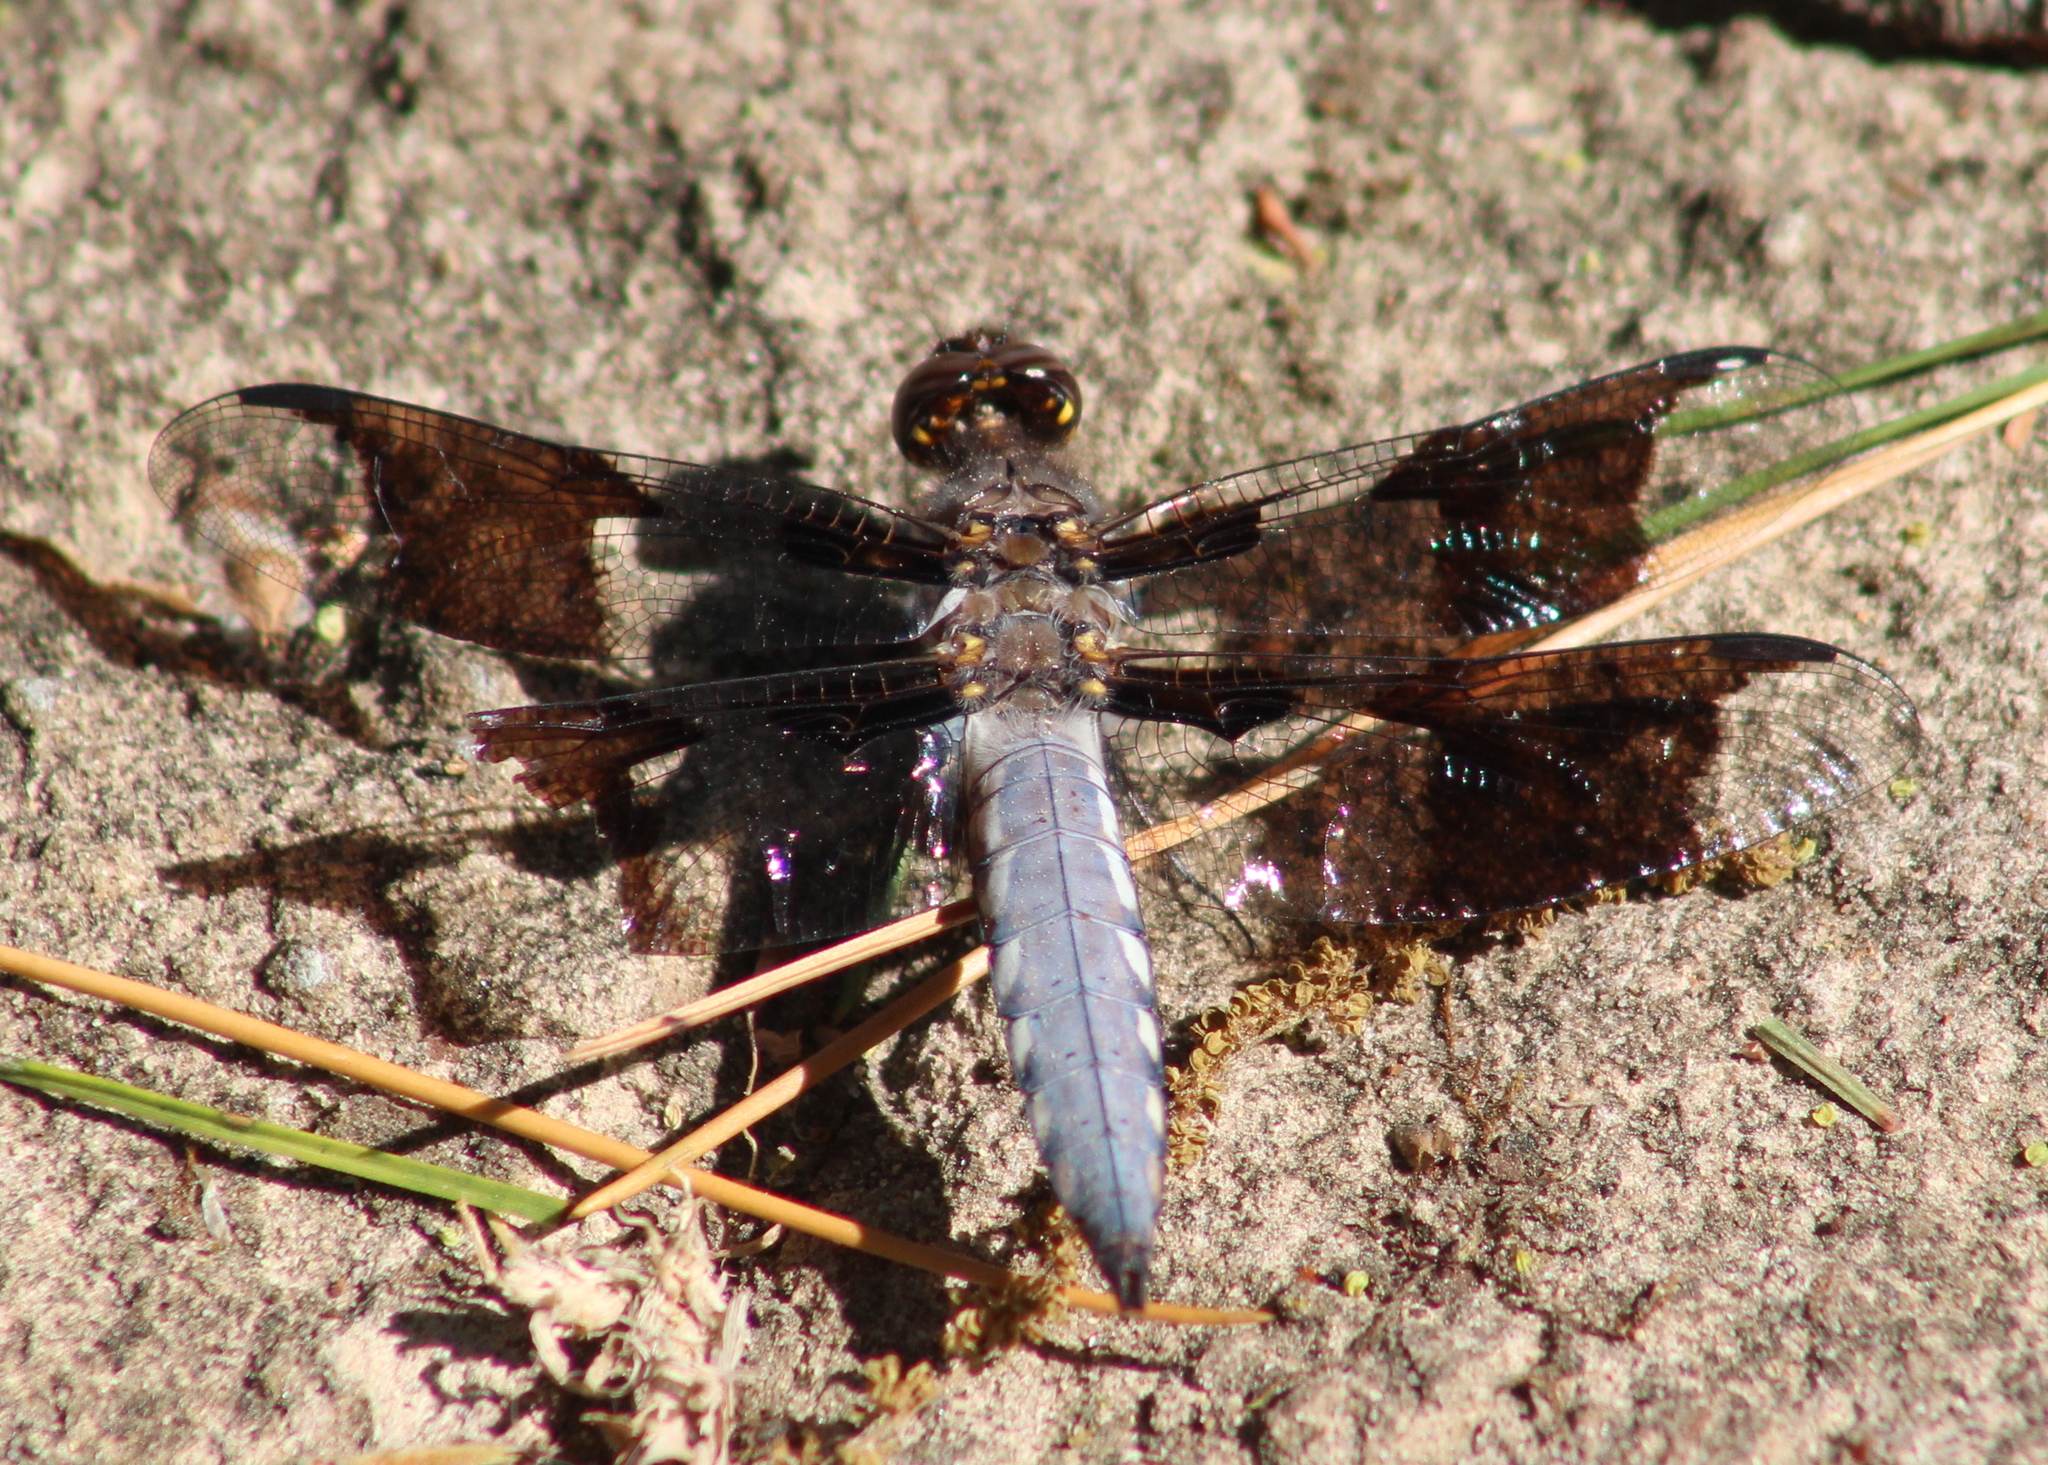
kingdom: Animalia
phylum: Arthropoda
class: Insecta
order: Odonata
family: Libellulidae
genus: Plathemis
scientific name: Plathemis lydia
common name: Common whitetail
